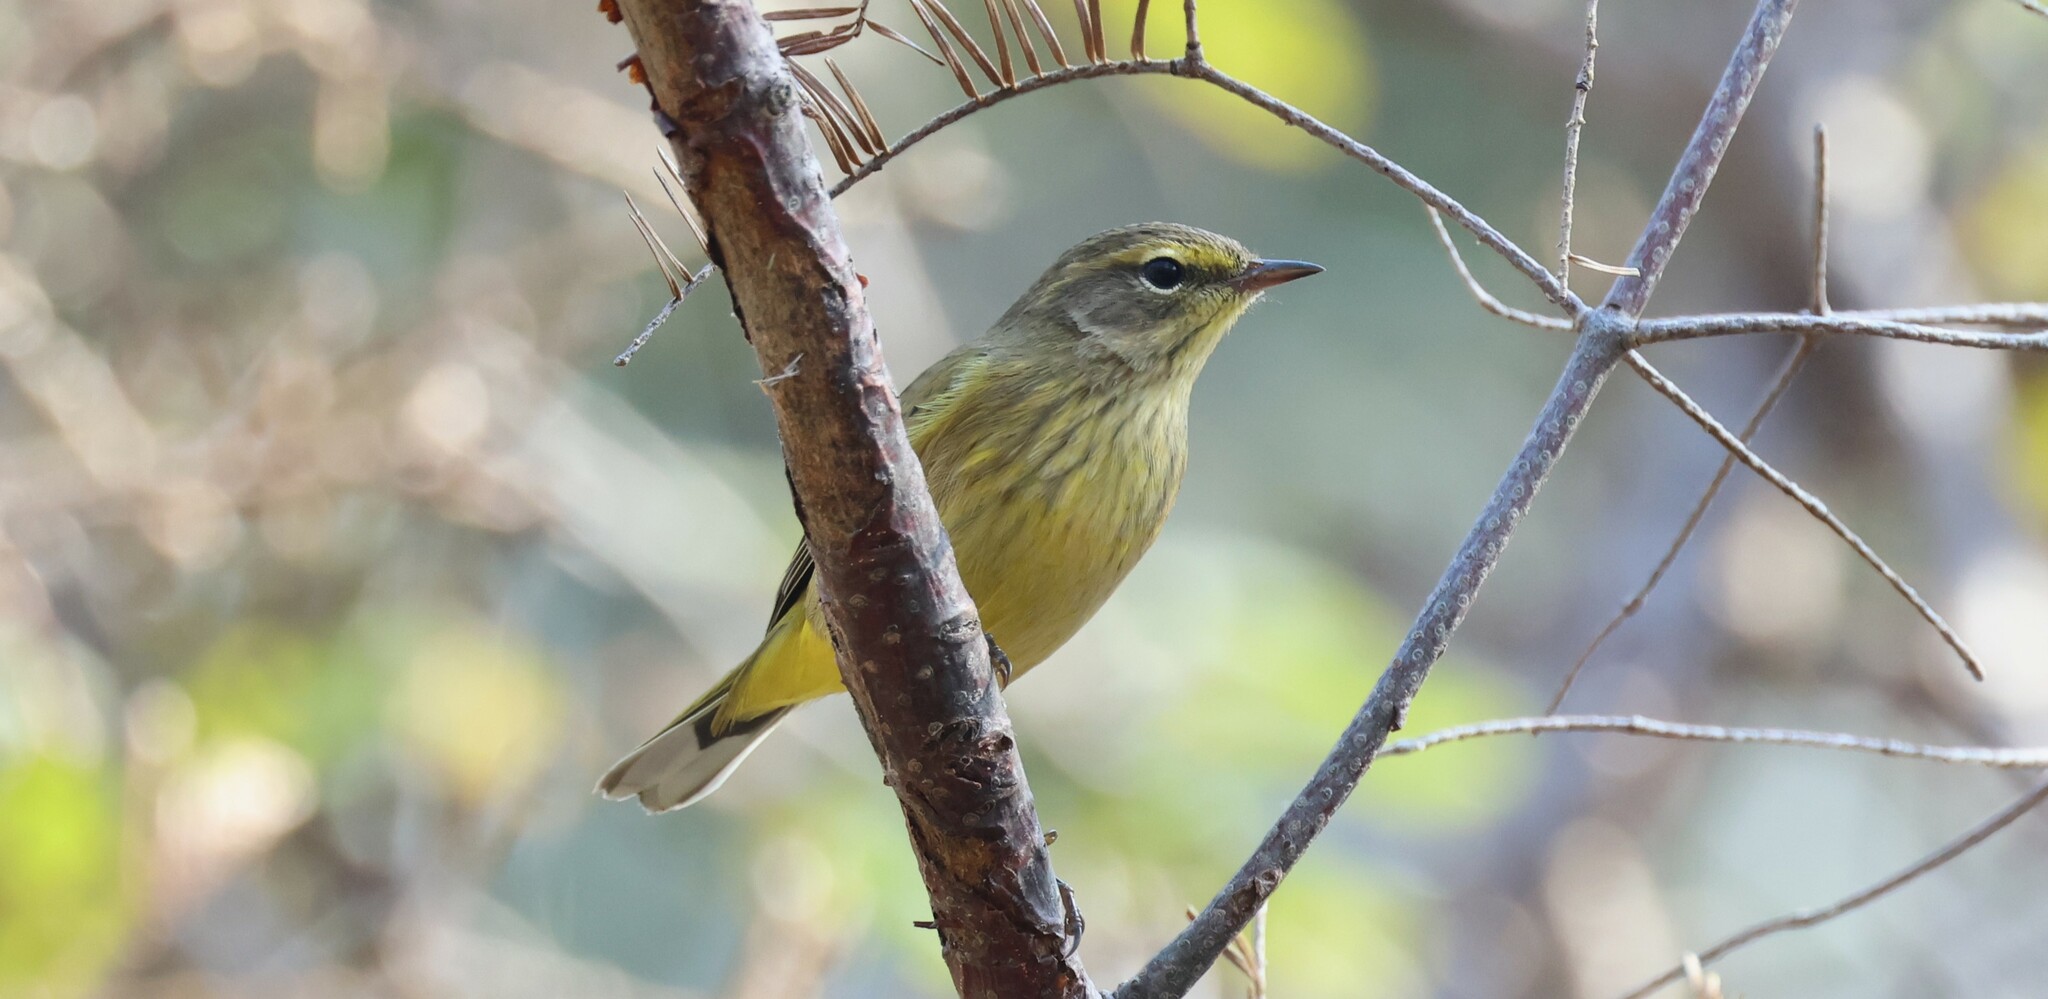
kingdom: Animalia
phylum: Chordata
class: Aves
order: Passeriformes
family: Parulidae
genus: Setophaga
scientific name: Setophaga palmarum
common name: Palm warbler
